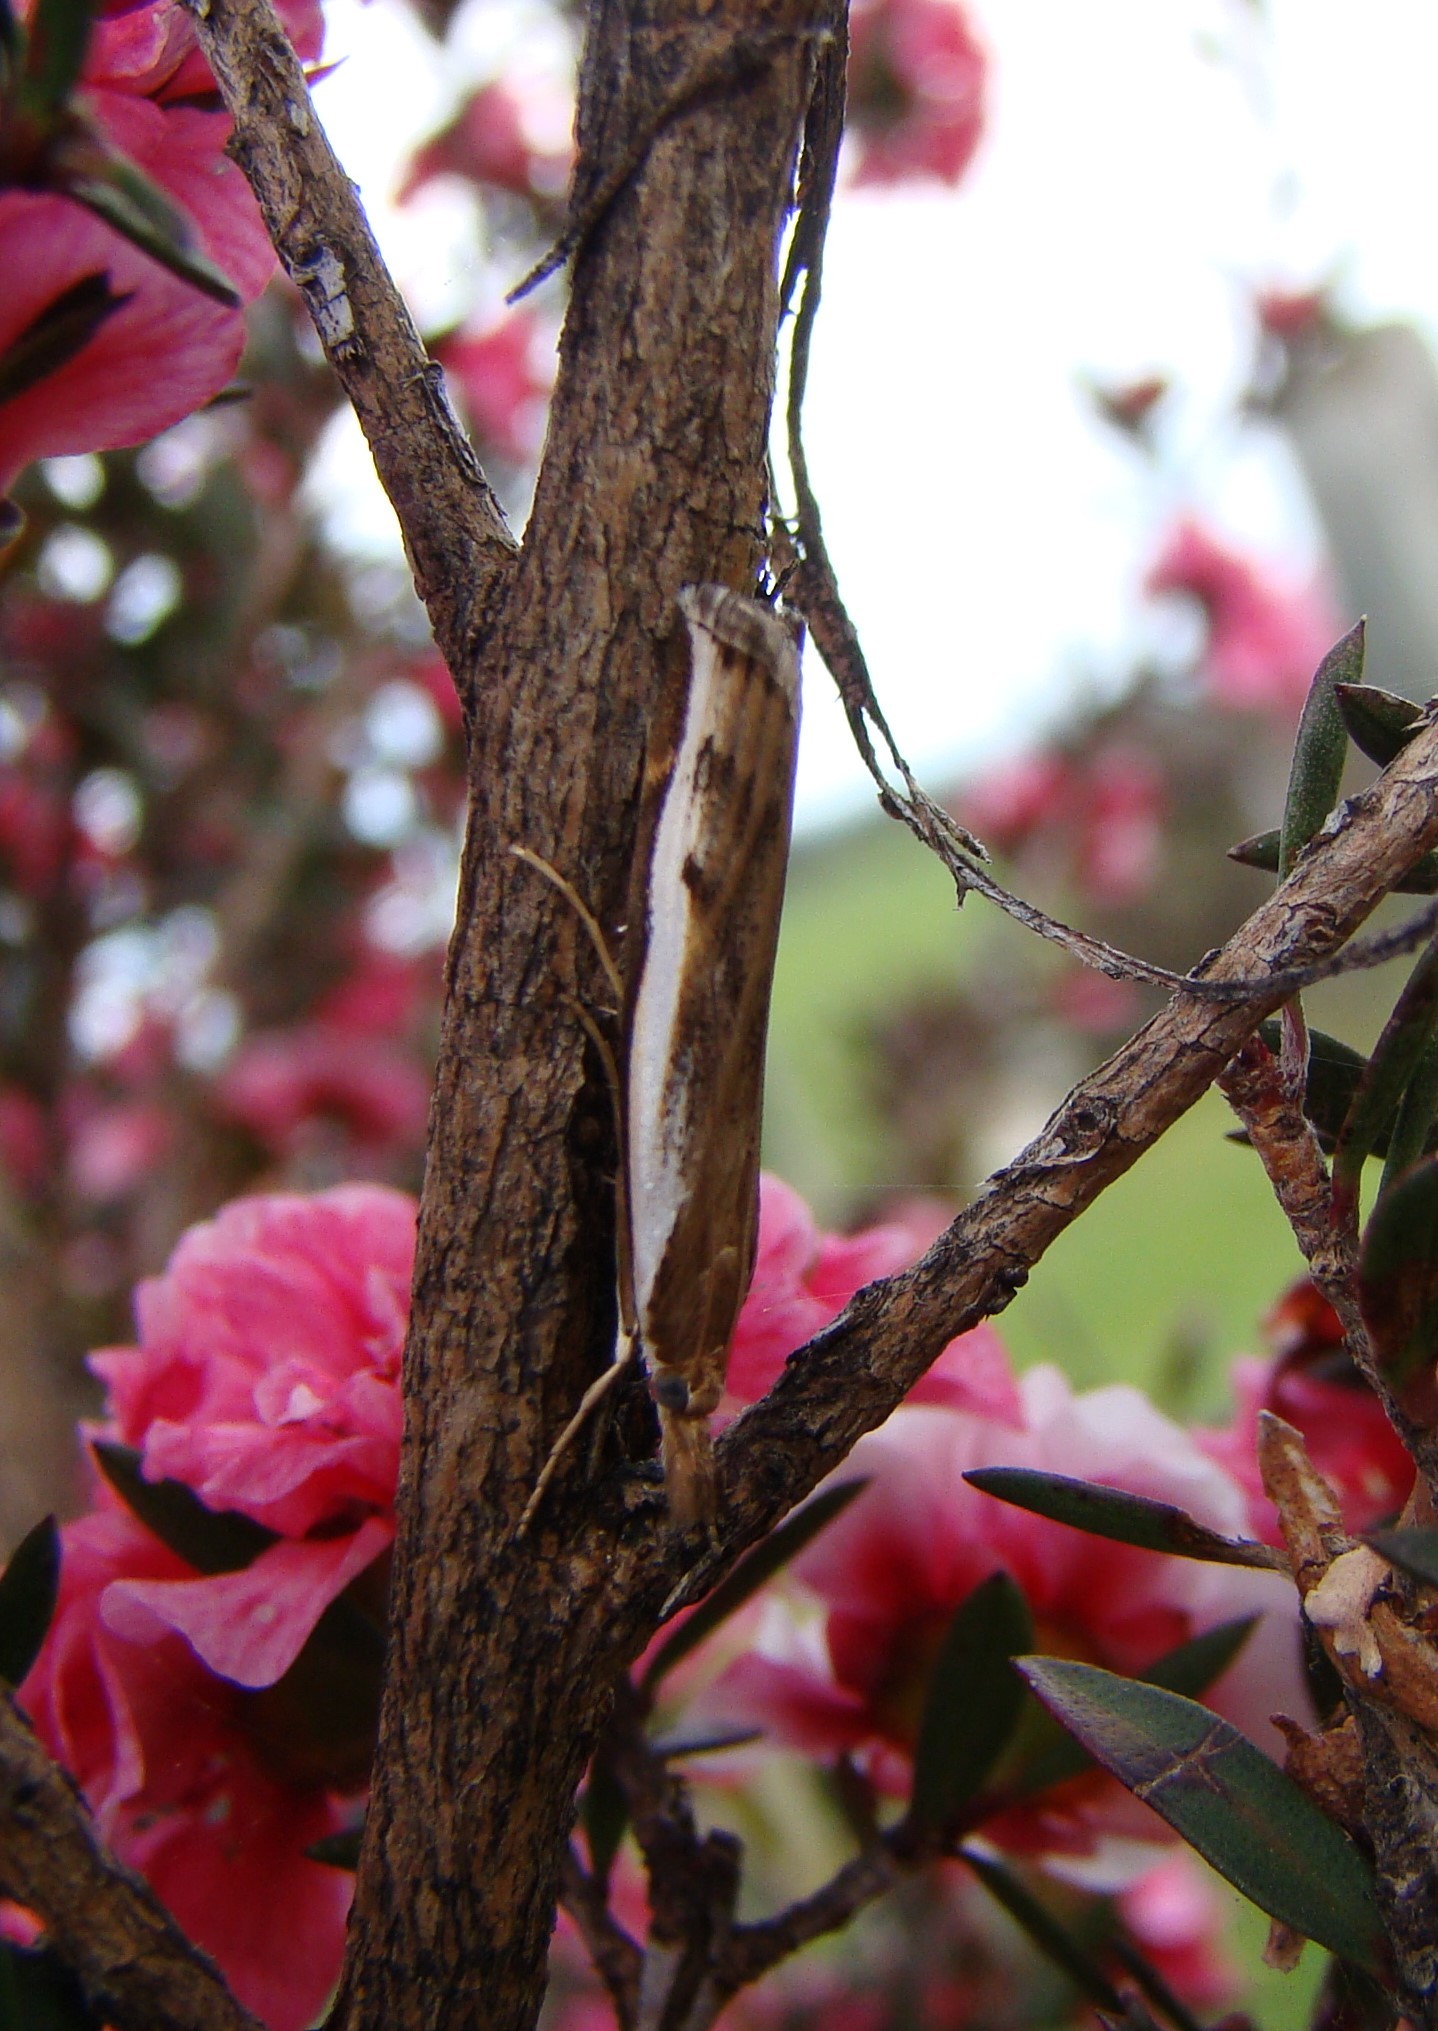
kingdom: Animalia
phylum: Arthropoda
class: Insecta
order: Lepidoptera
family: Crambidae
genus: Orocrambus
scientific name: Orocrambus flexuosellus
